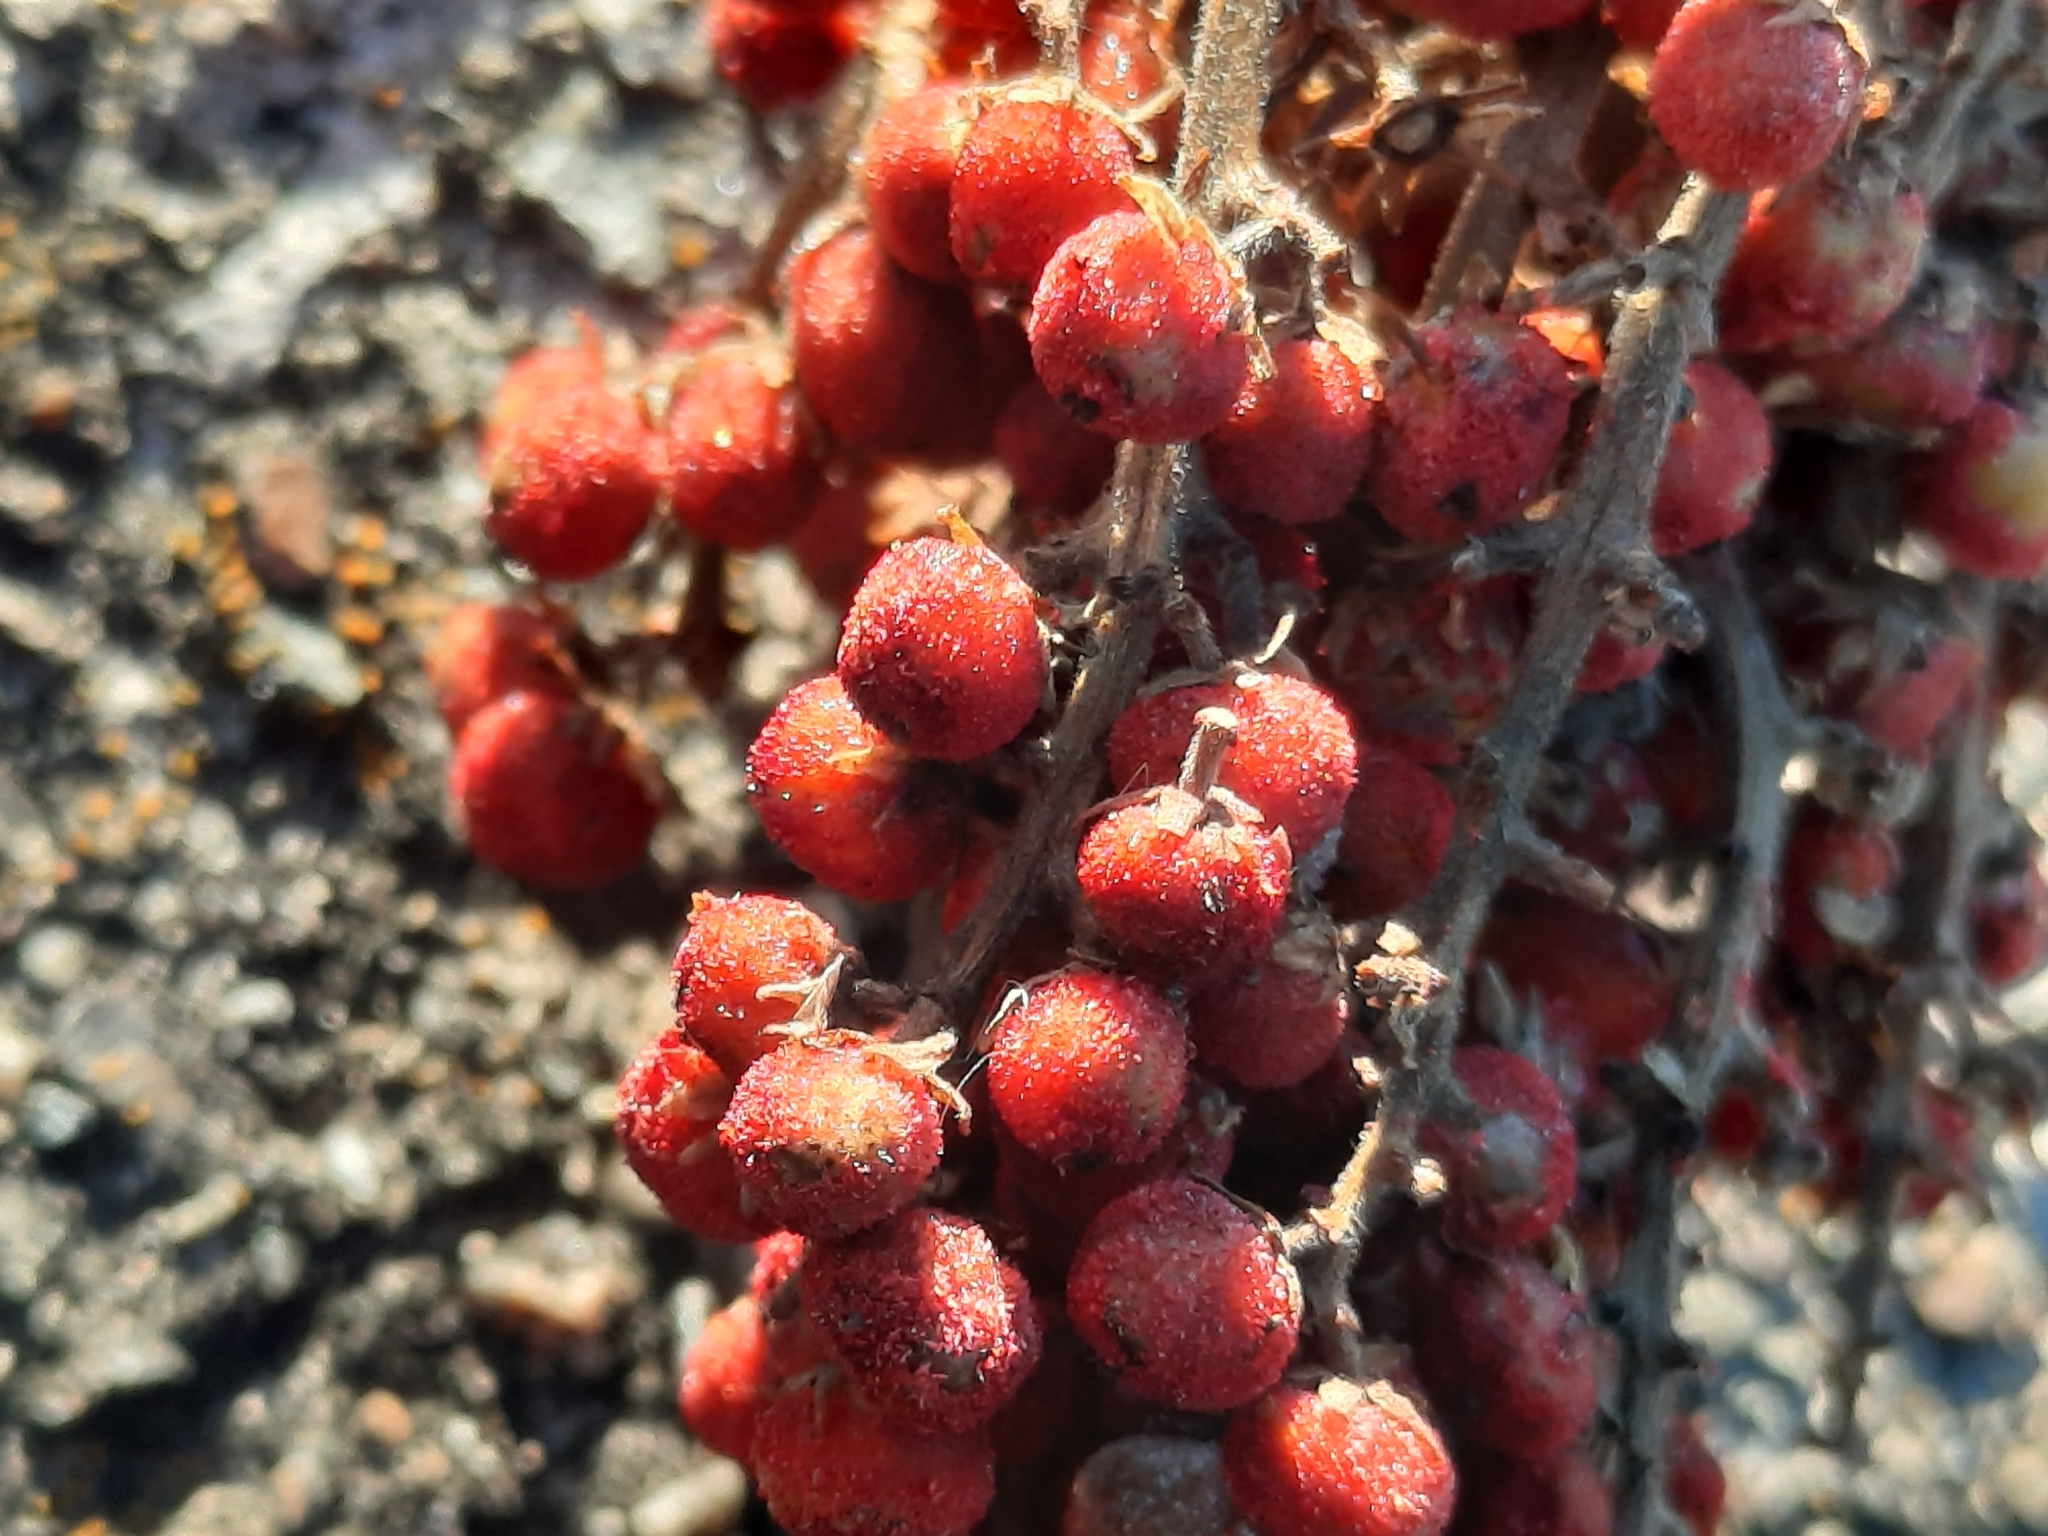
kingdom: Plantae
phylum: Tracheophyta
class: Magnoliopsida
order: Sapindales
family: Anacardiaceae
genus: Rhus
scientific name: Rhus glabra
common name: Scarlet sumac
